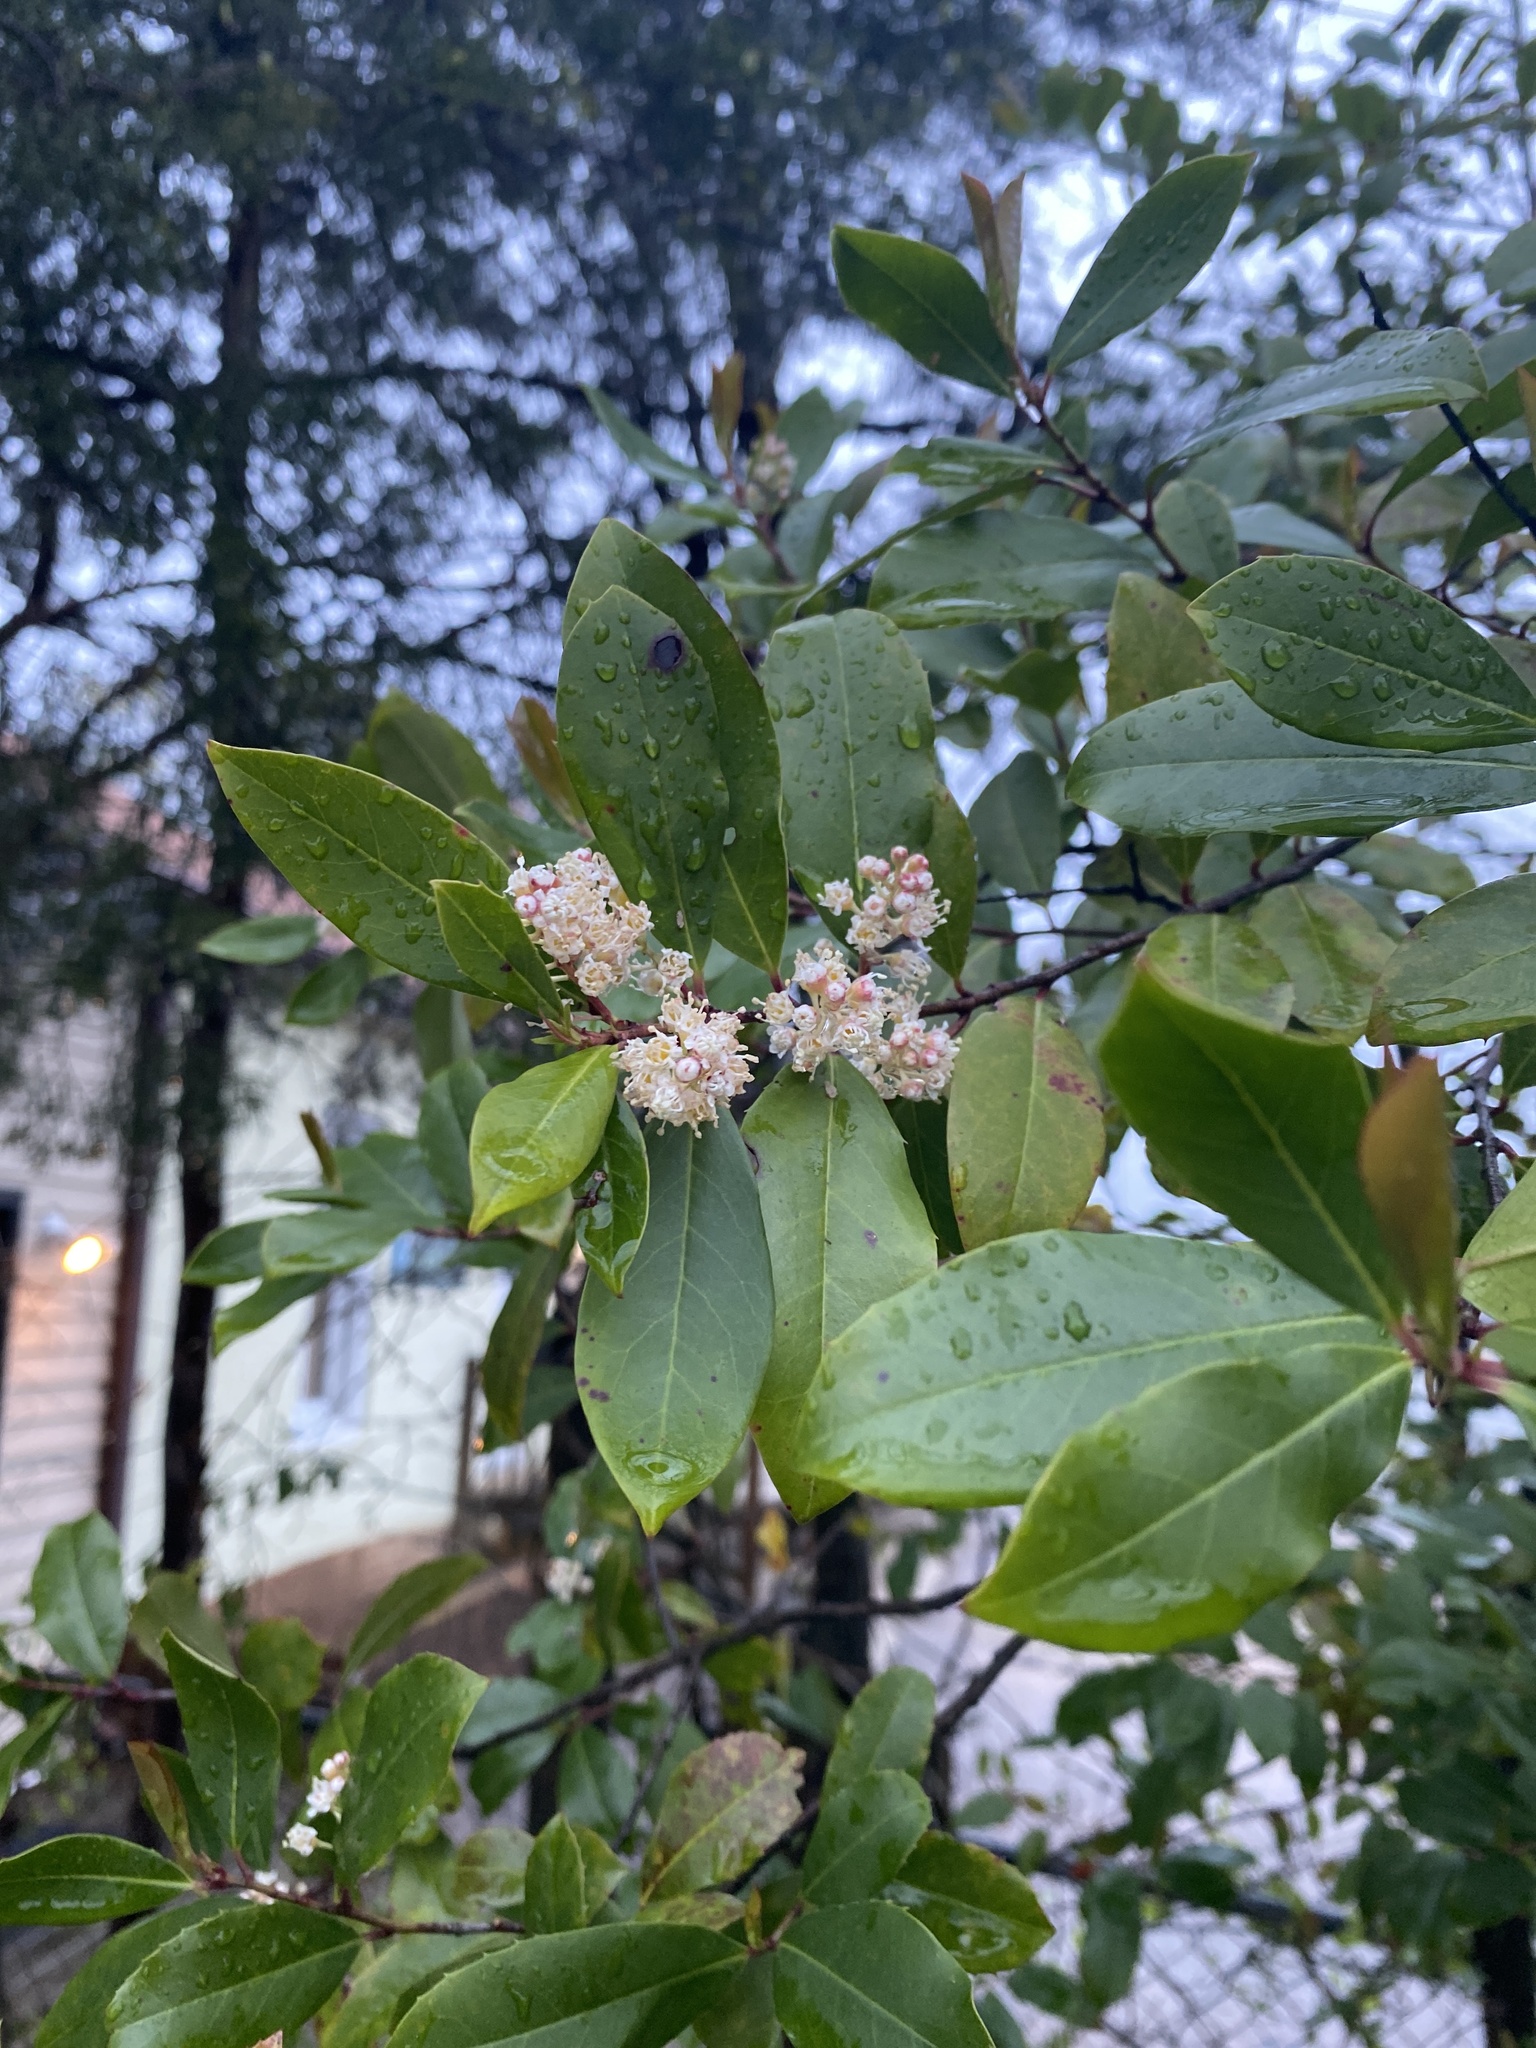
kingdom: Plantae
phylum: Tracheophyta
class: Magnoliopsida
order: Rosales
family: Rosaceae
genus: Prunus
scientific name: Prunus caroliniana
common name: Carolina laurel cherry
